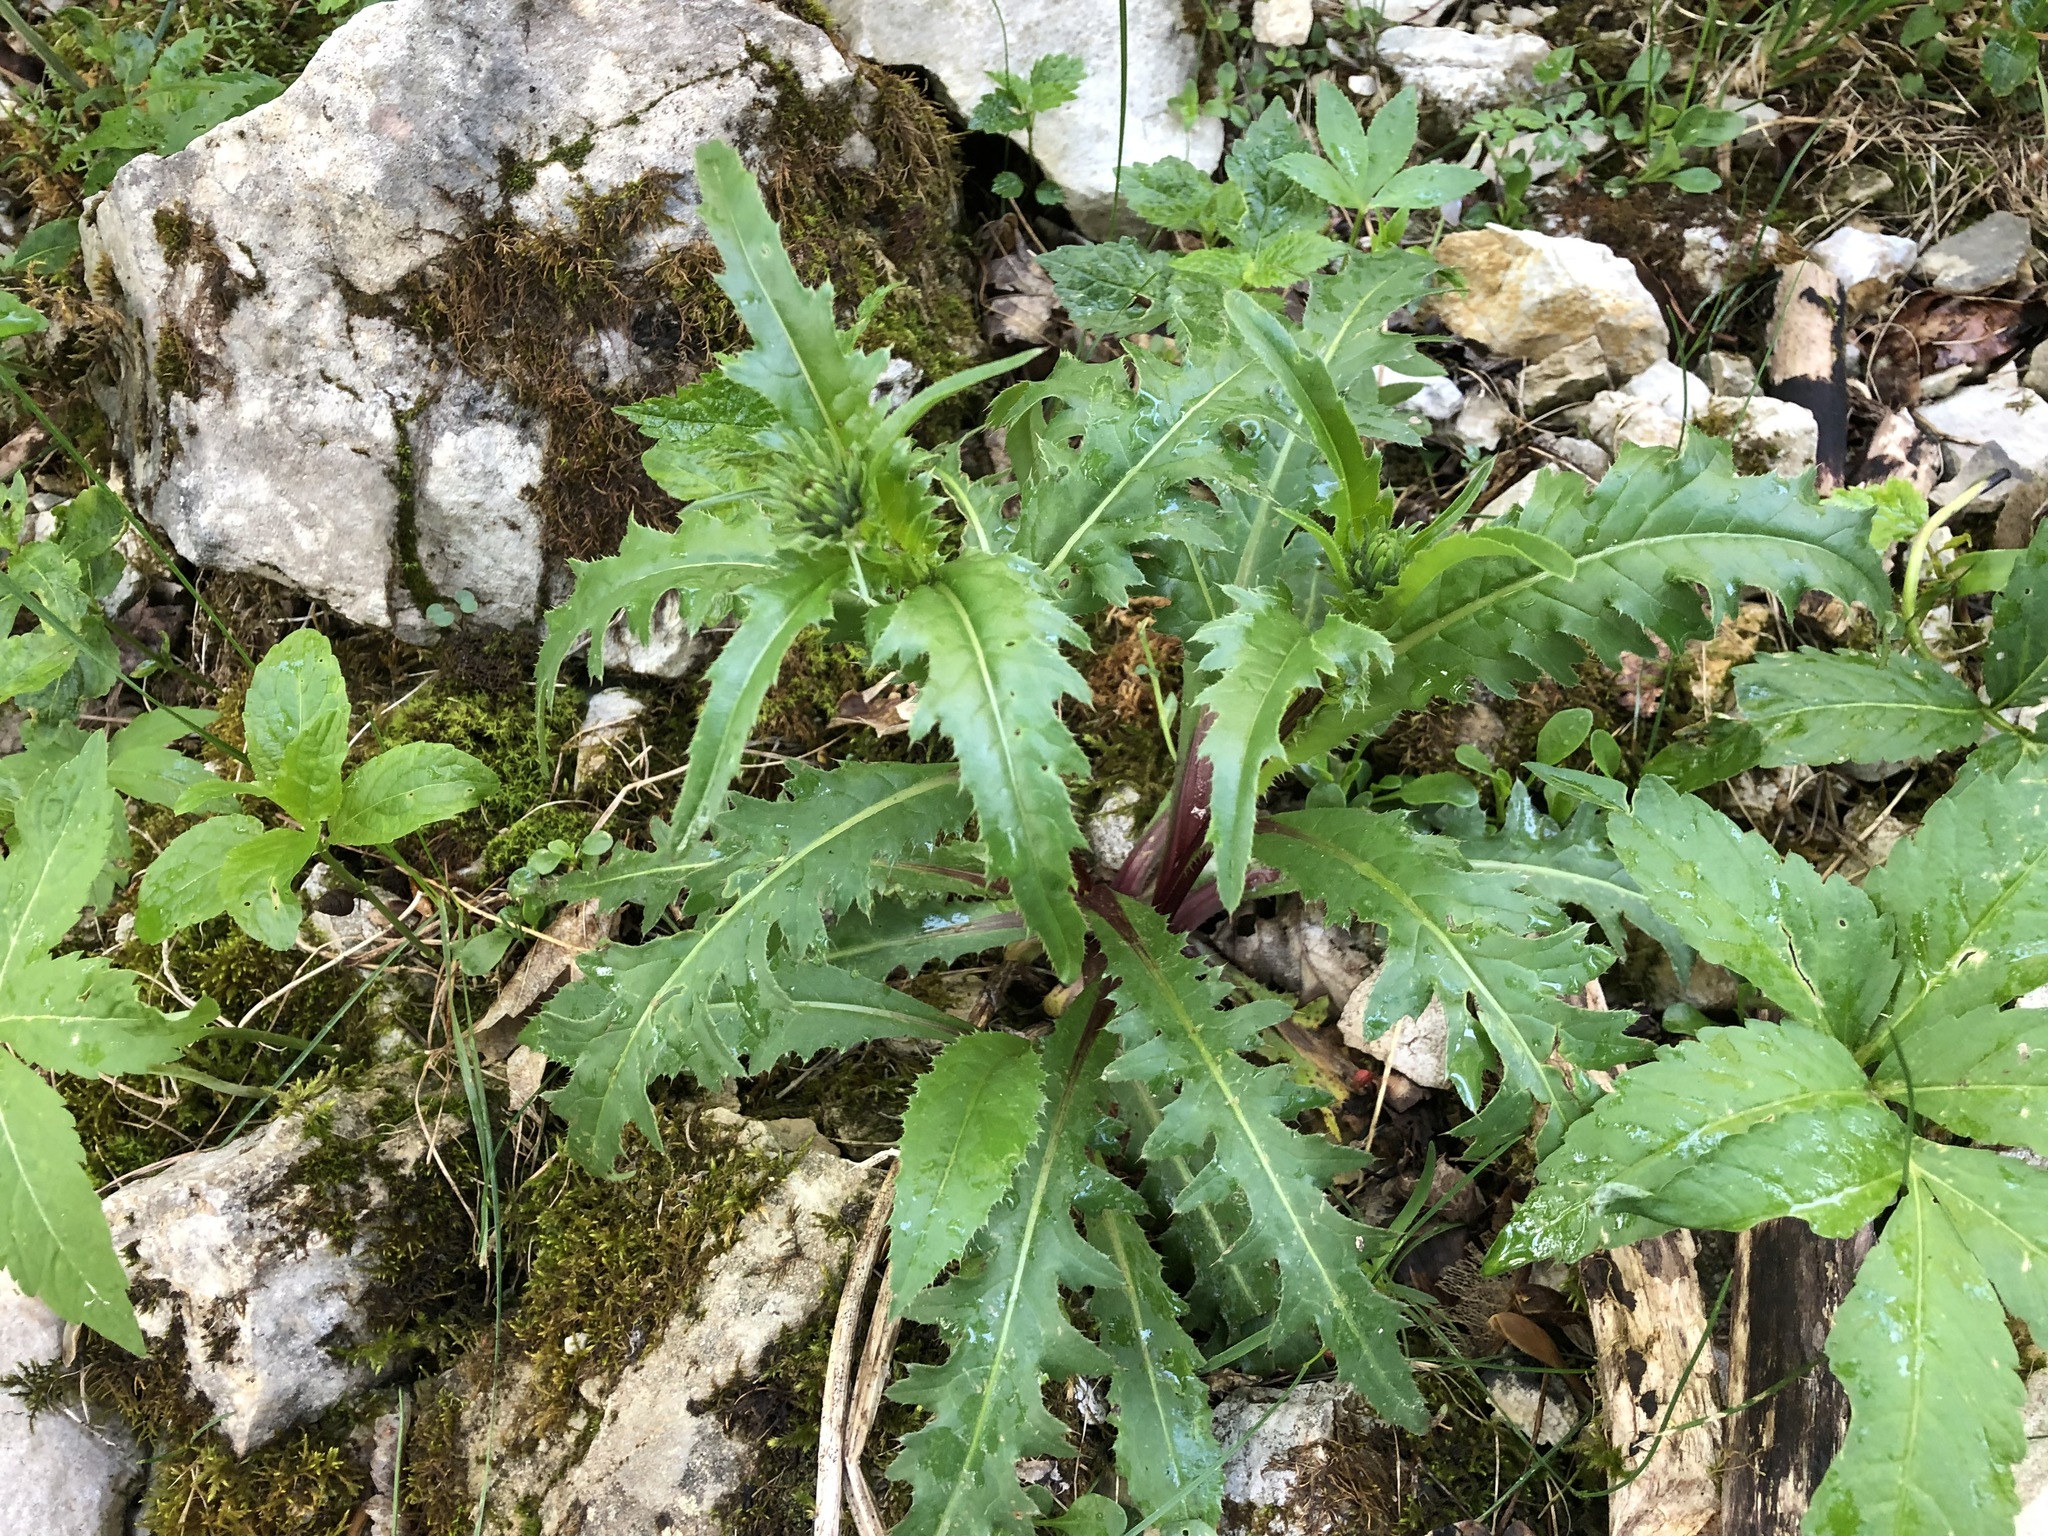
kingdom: Plantae
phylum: Tracheophyta
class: Magnoliopsida
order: Asterales
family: Asteraceae
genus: Carduus
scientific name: Carduus defloratus
